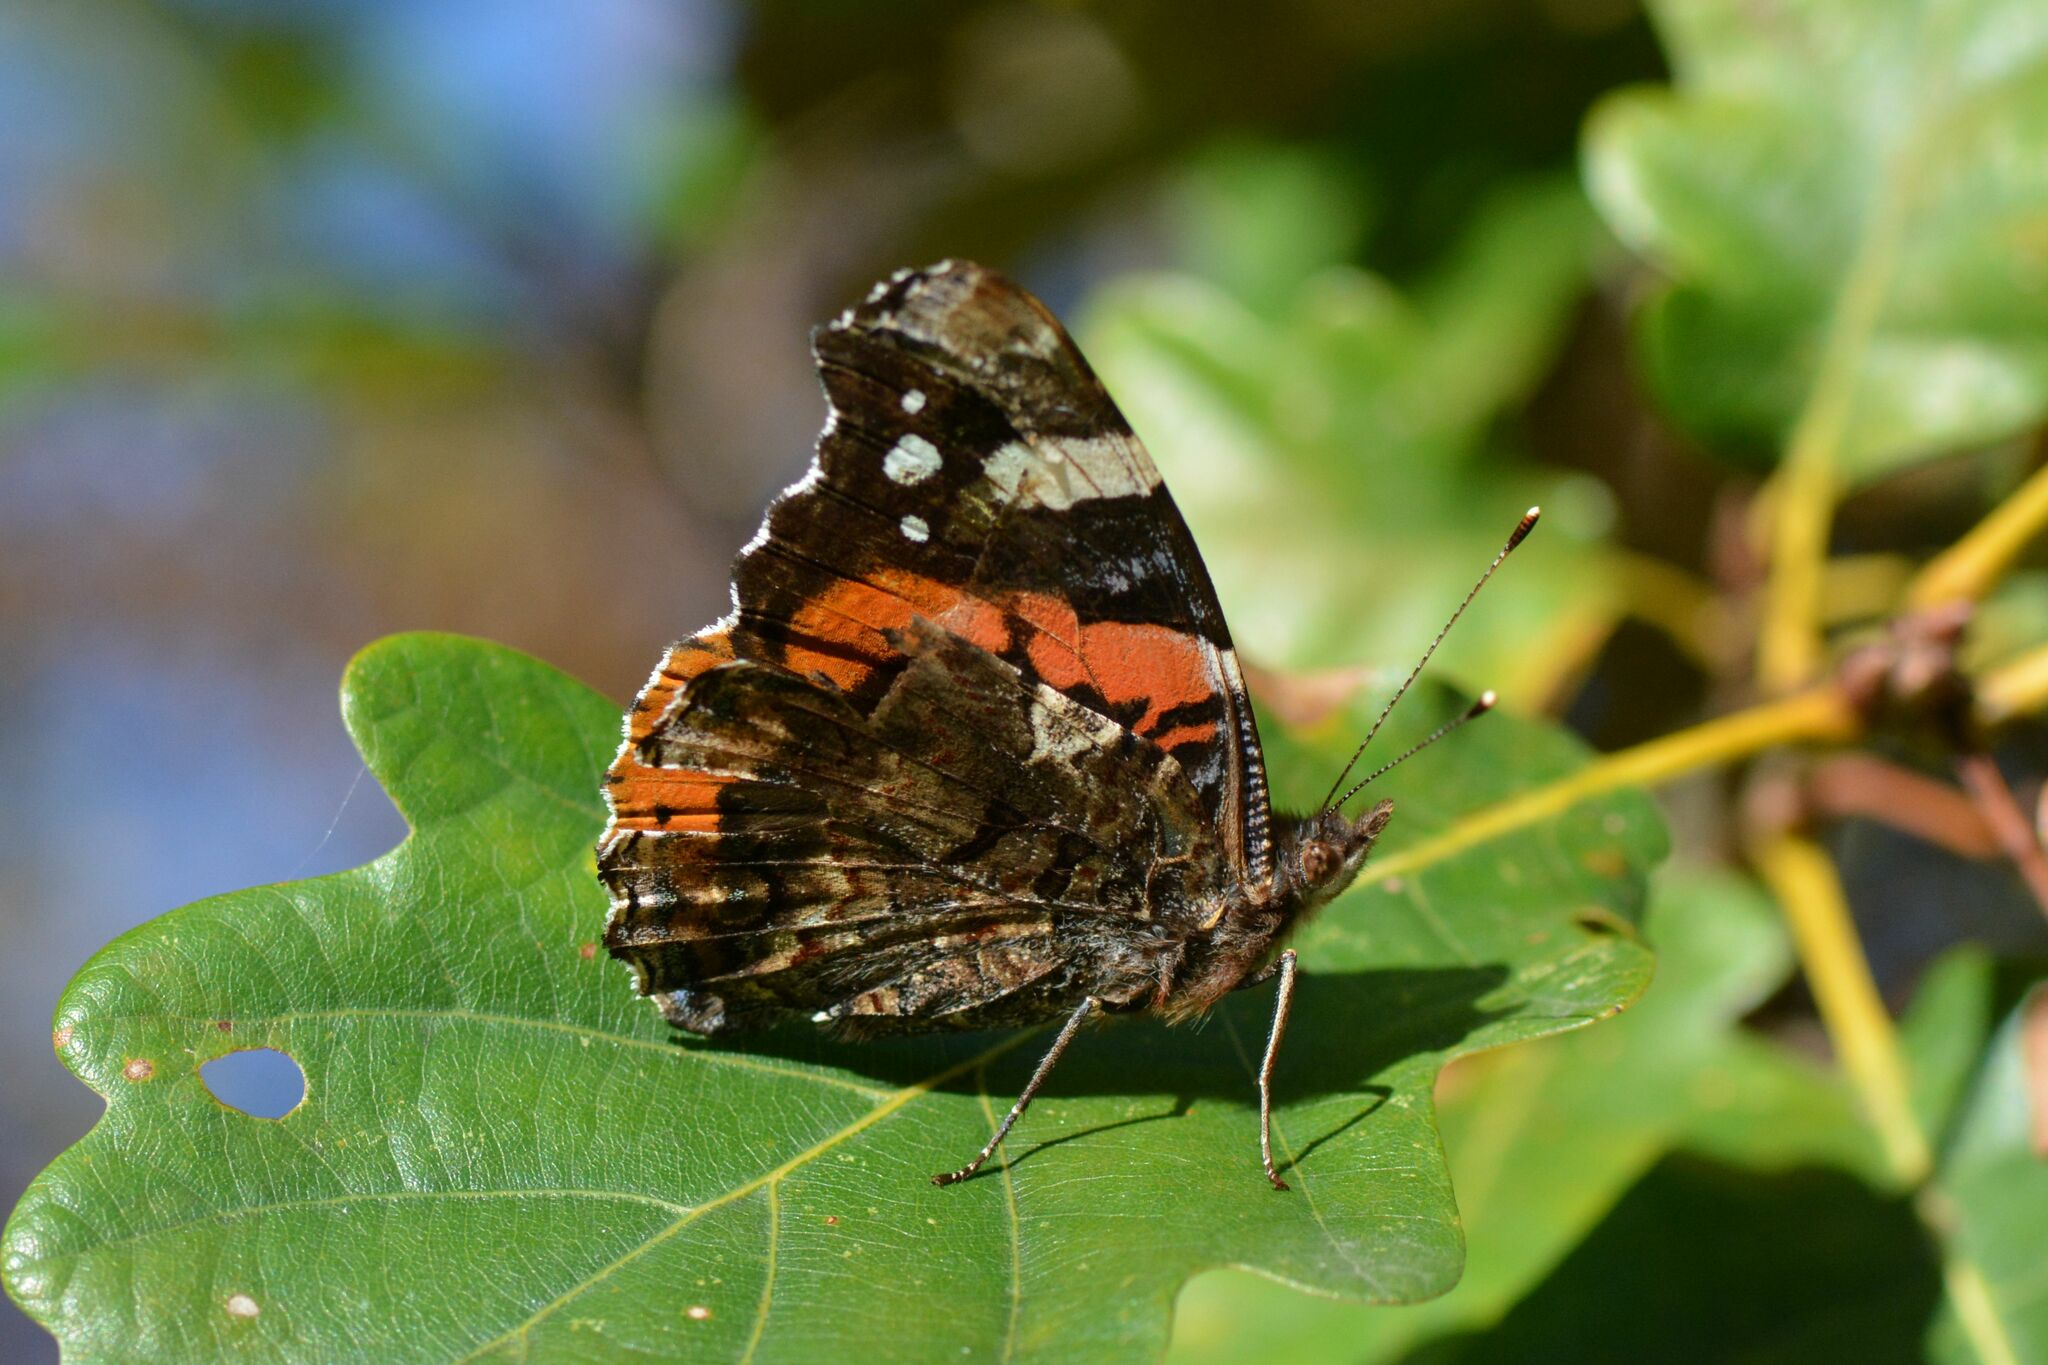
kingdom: Animalia
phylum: Arthropoda
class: Insecta
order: Lepidoptera
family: Nymphalidae
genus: Vanessa
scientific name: Vanessa atalanta
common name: Red admiral
